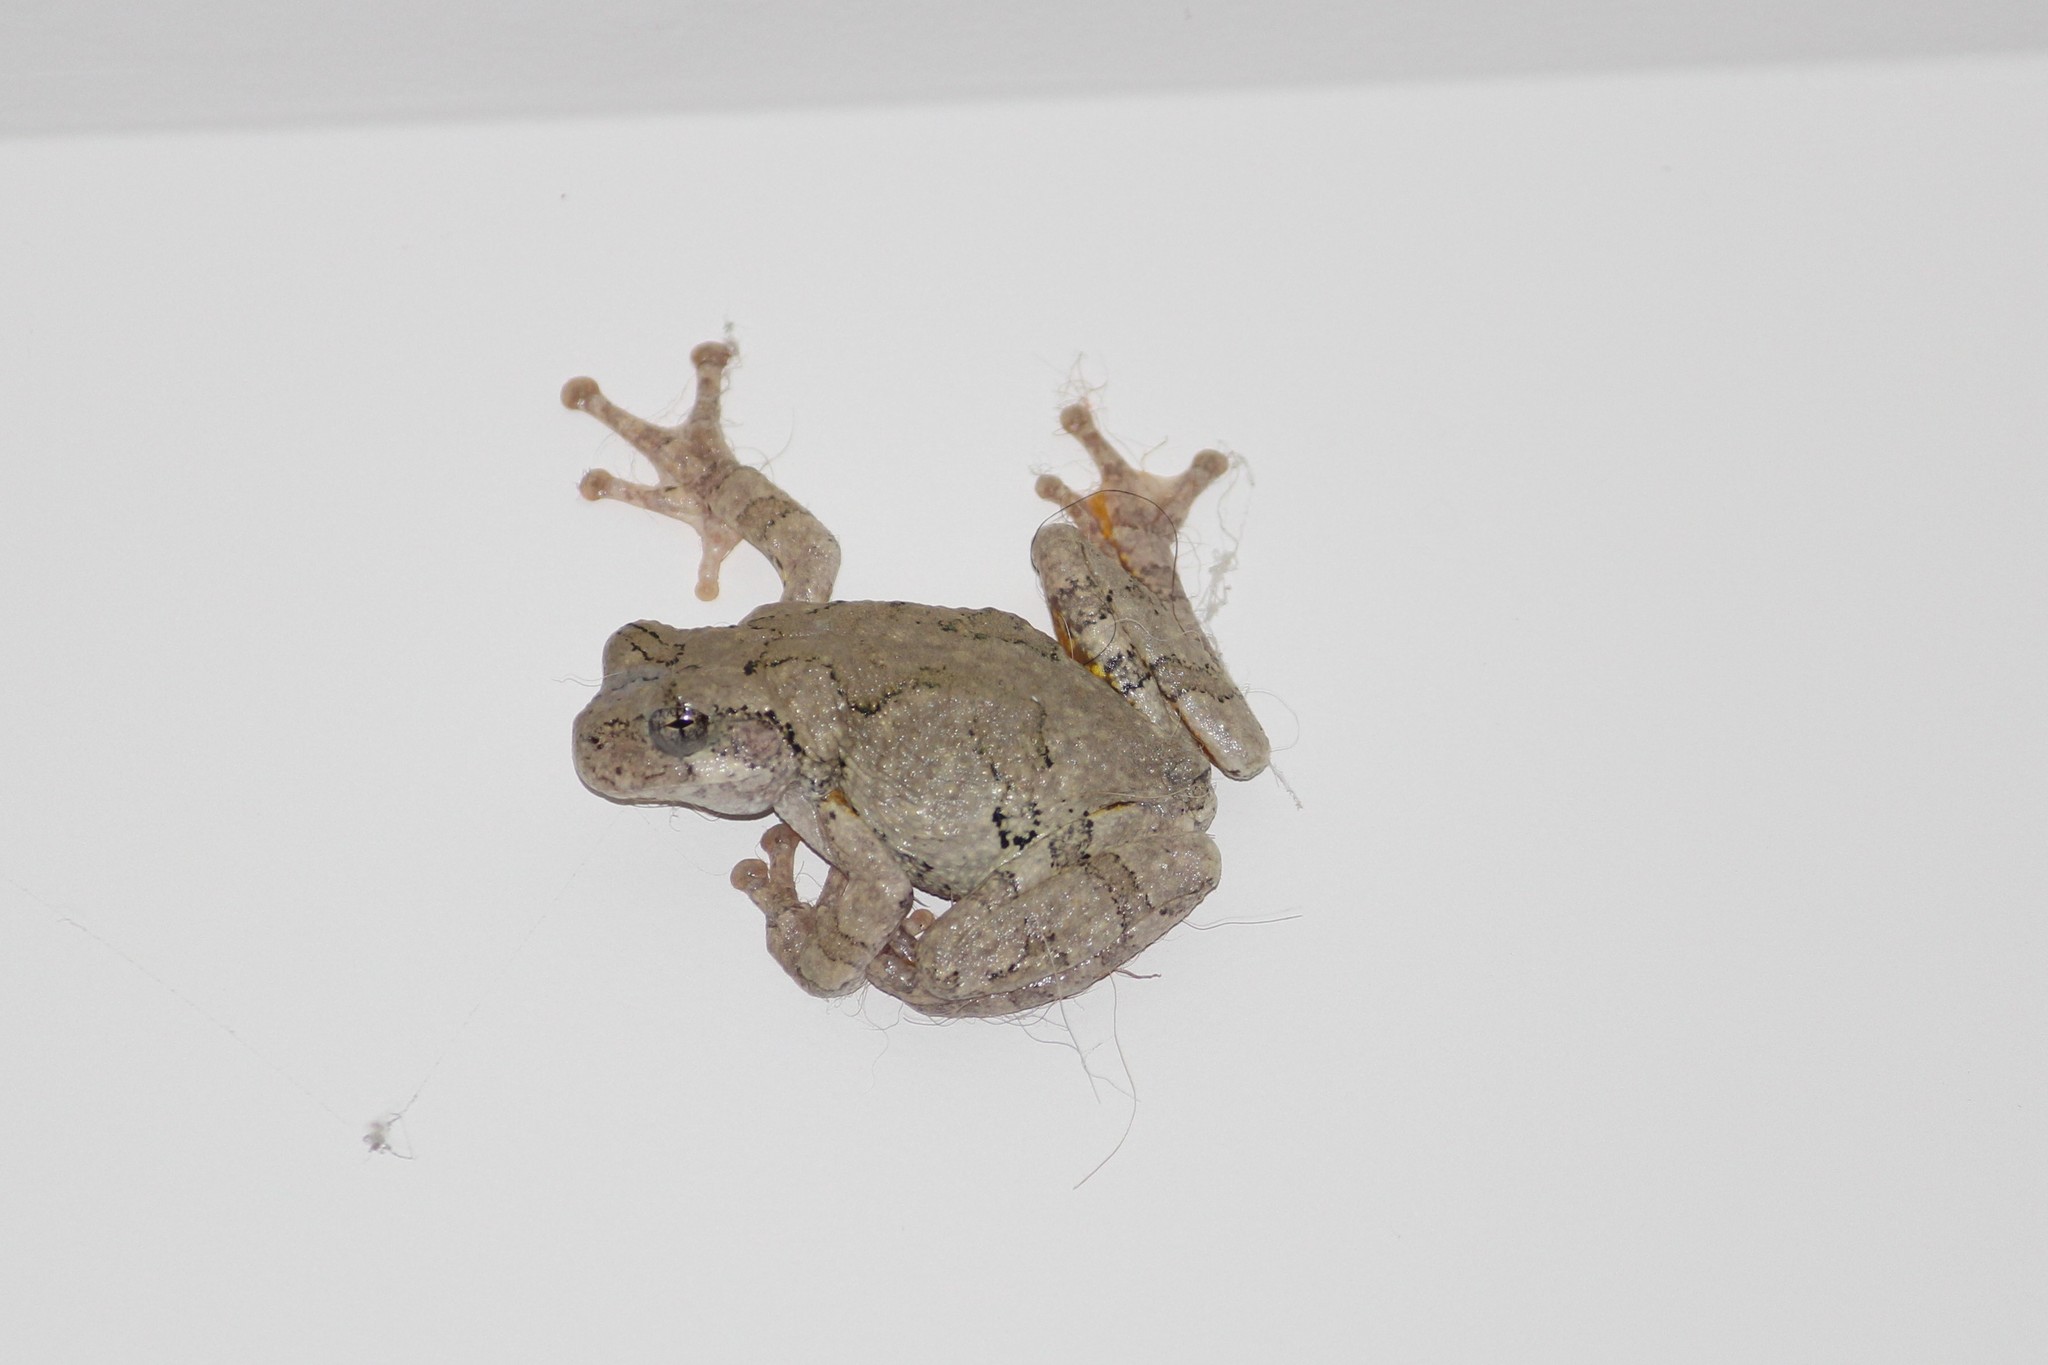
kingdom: Animalia
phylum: Chordata
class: Amphibia
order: Anura
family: Hylidae
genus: Dryophytes
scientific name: Dryophytes chrysoscelis
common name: Cope's gray treefrog
